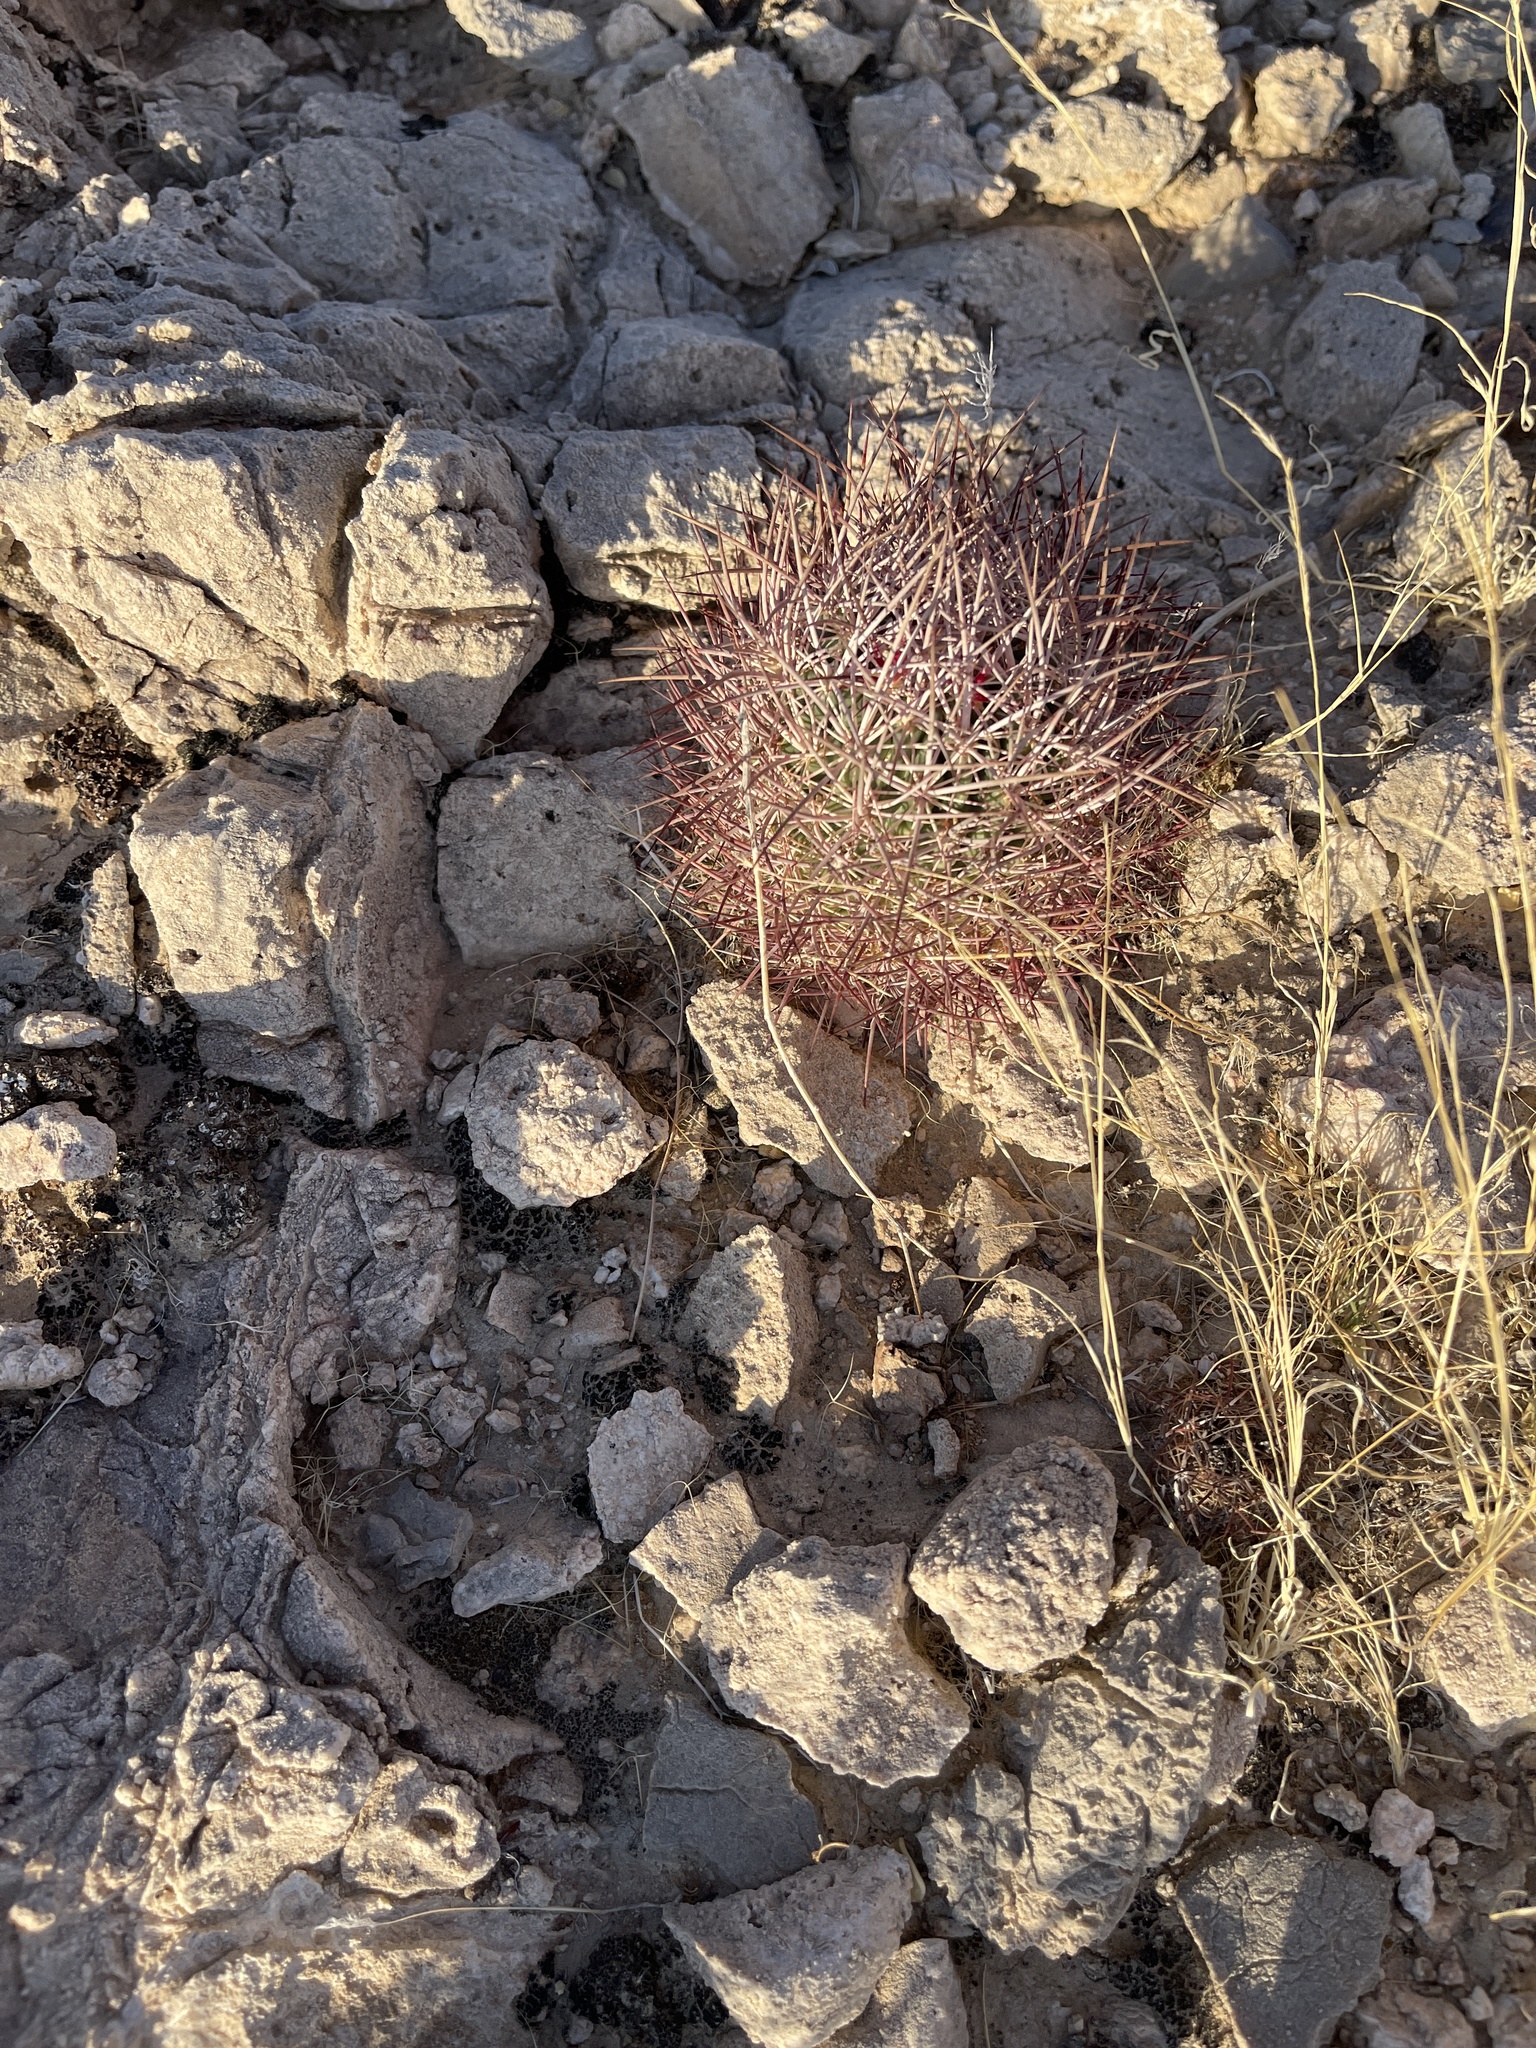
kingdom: Plantae
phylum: Tracheophyta
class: Magnoliopsida
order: Caryophyllales
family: Cactaceae
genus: Sclerocactus
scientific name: Sclerocactus johnsonii
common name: Eight-spine fishhook cactus
